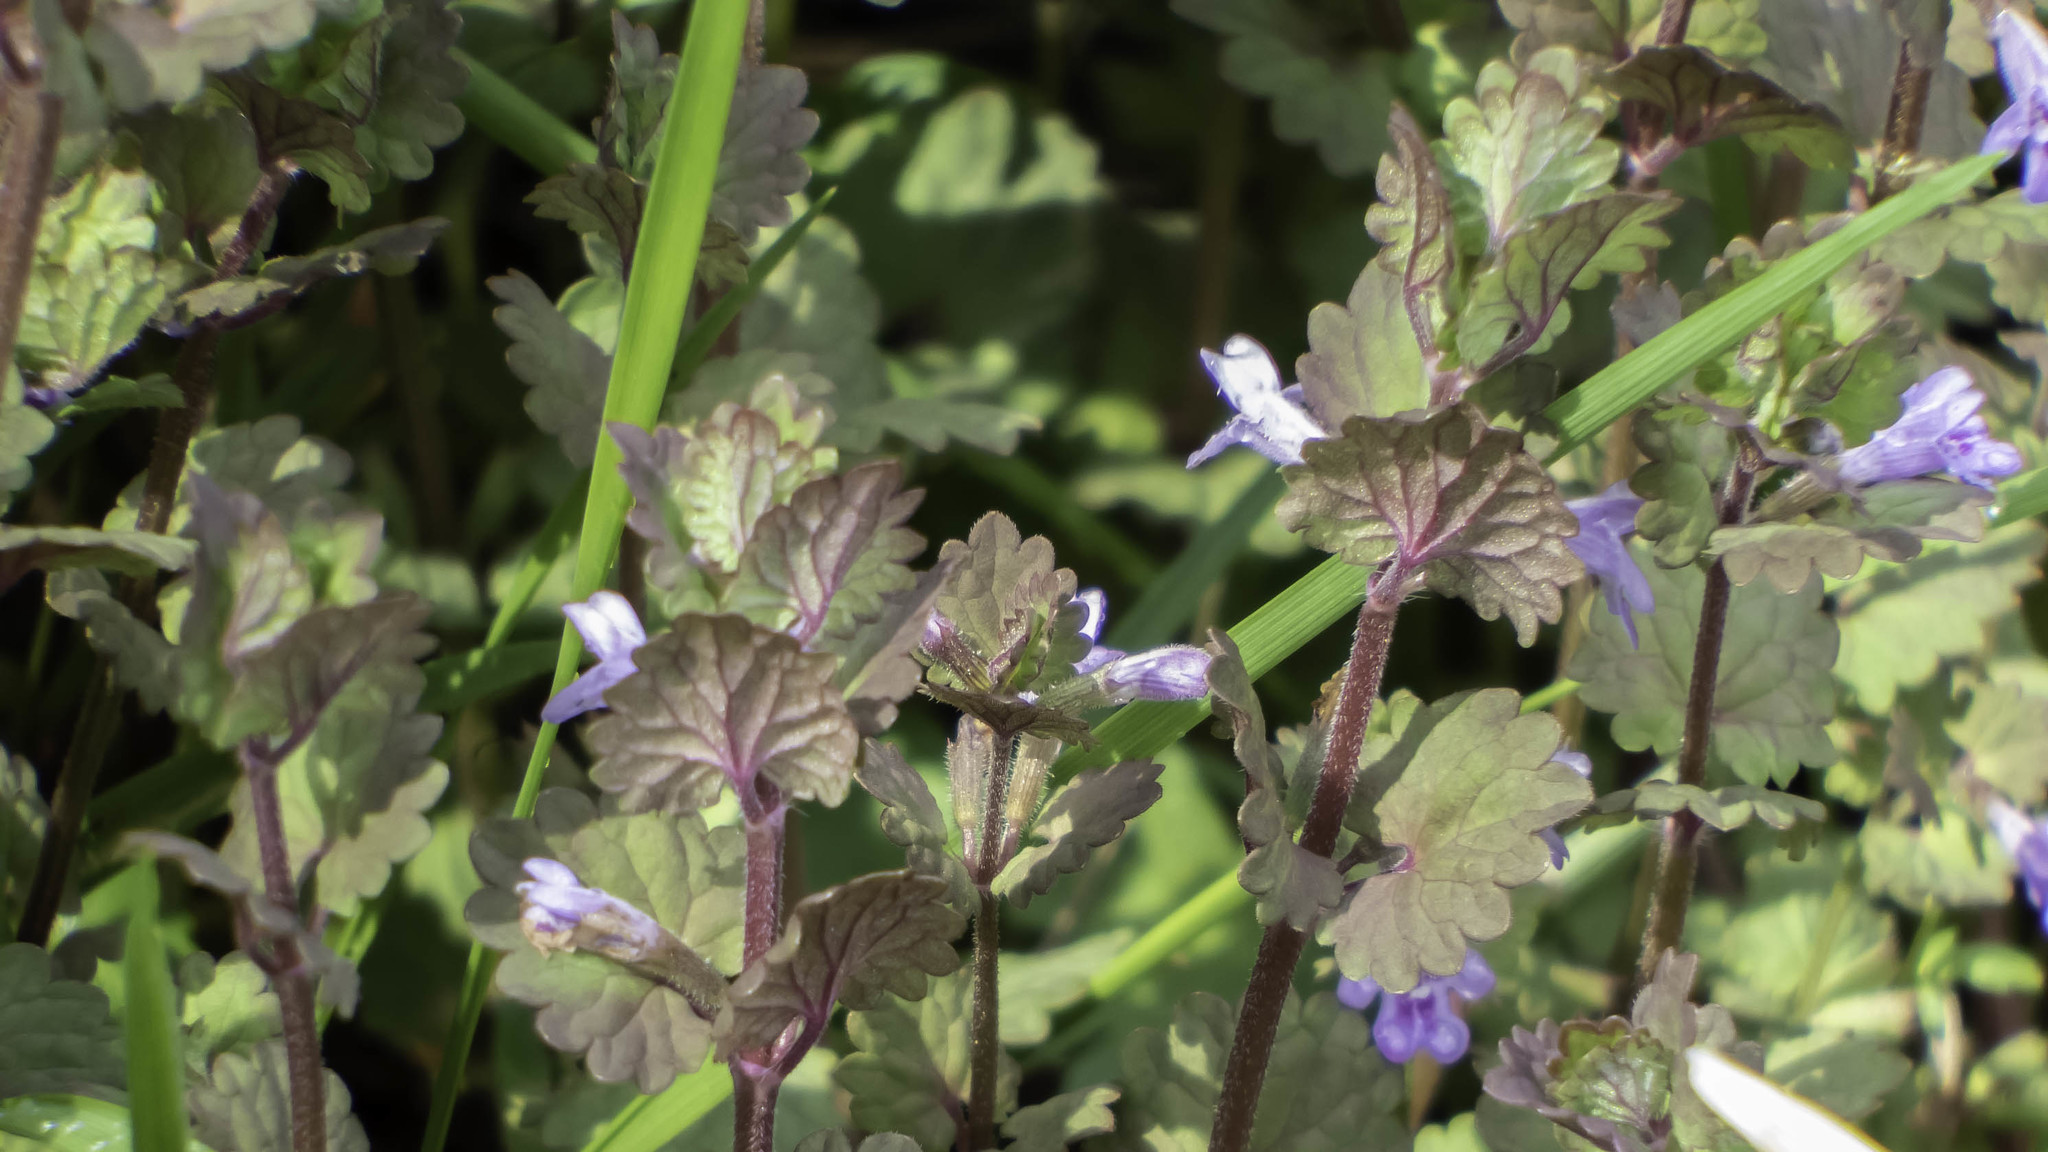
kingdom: Plantae
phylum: Tracheophyta
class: Magnoliopsida
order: Lamiales
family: Lamiaceae
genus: Glechoma
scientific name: Glechoma hederacea
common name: Ground ivy
